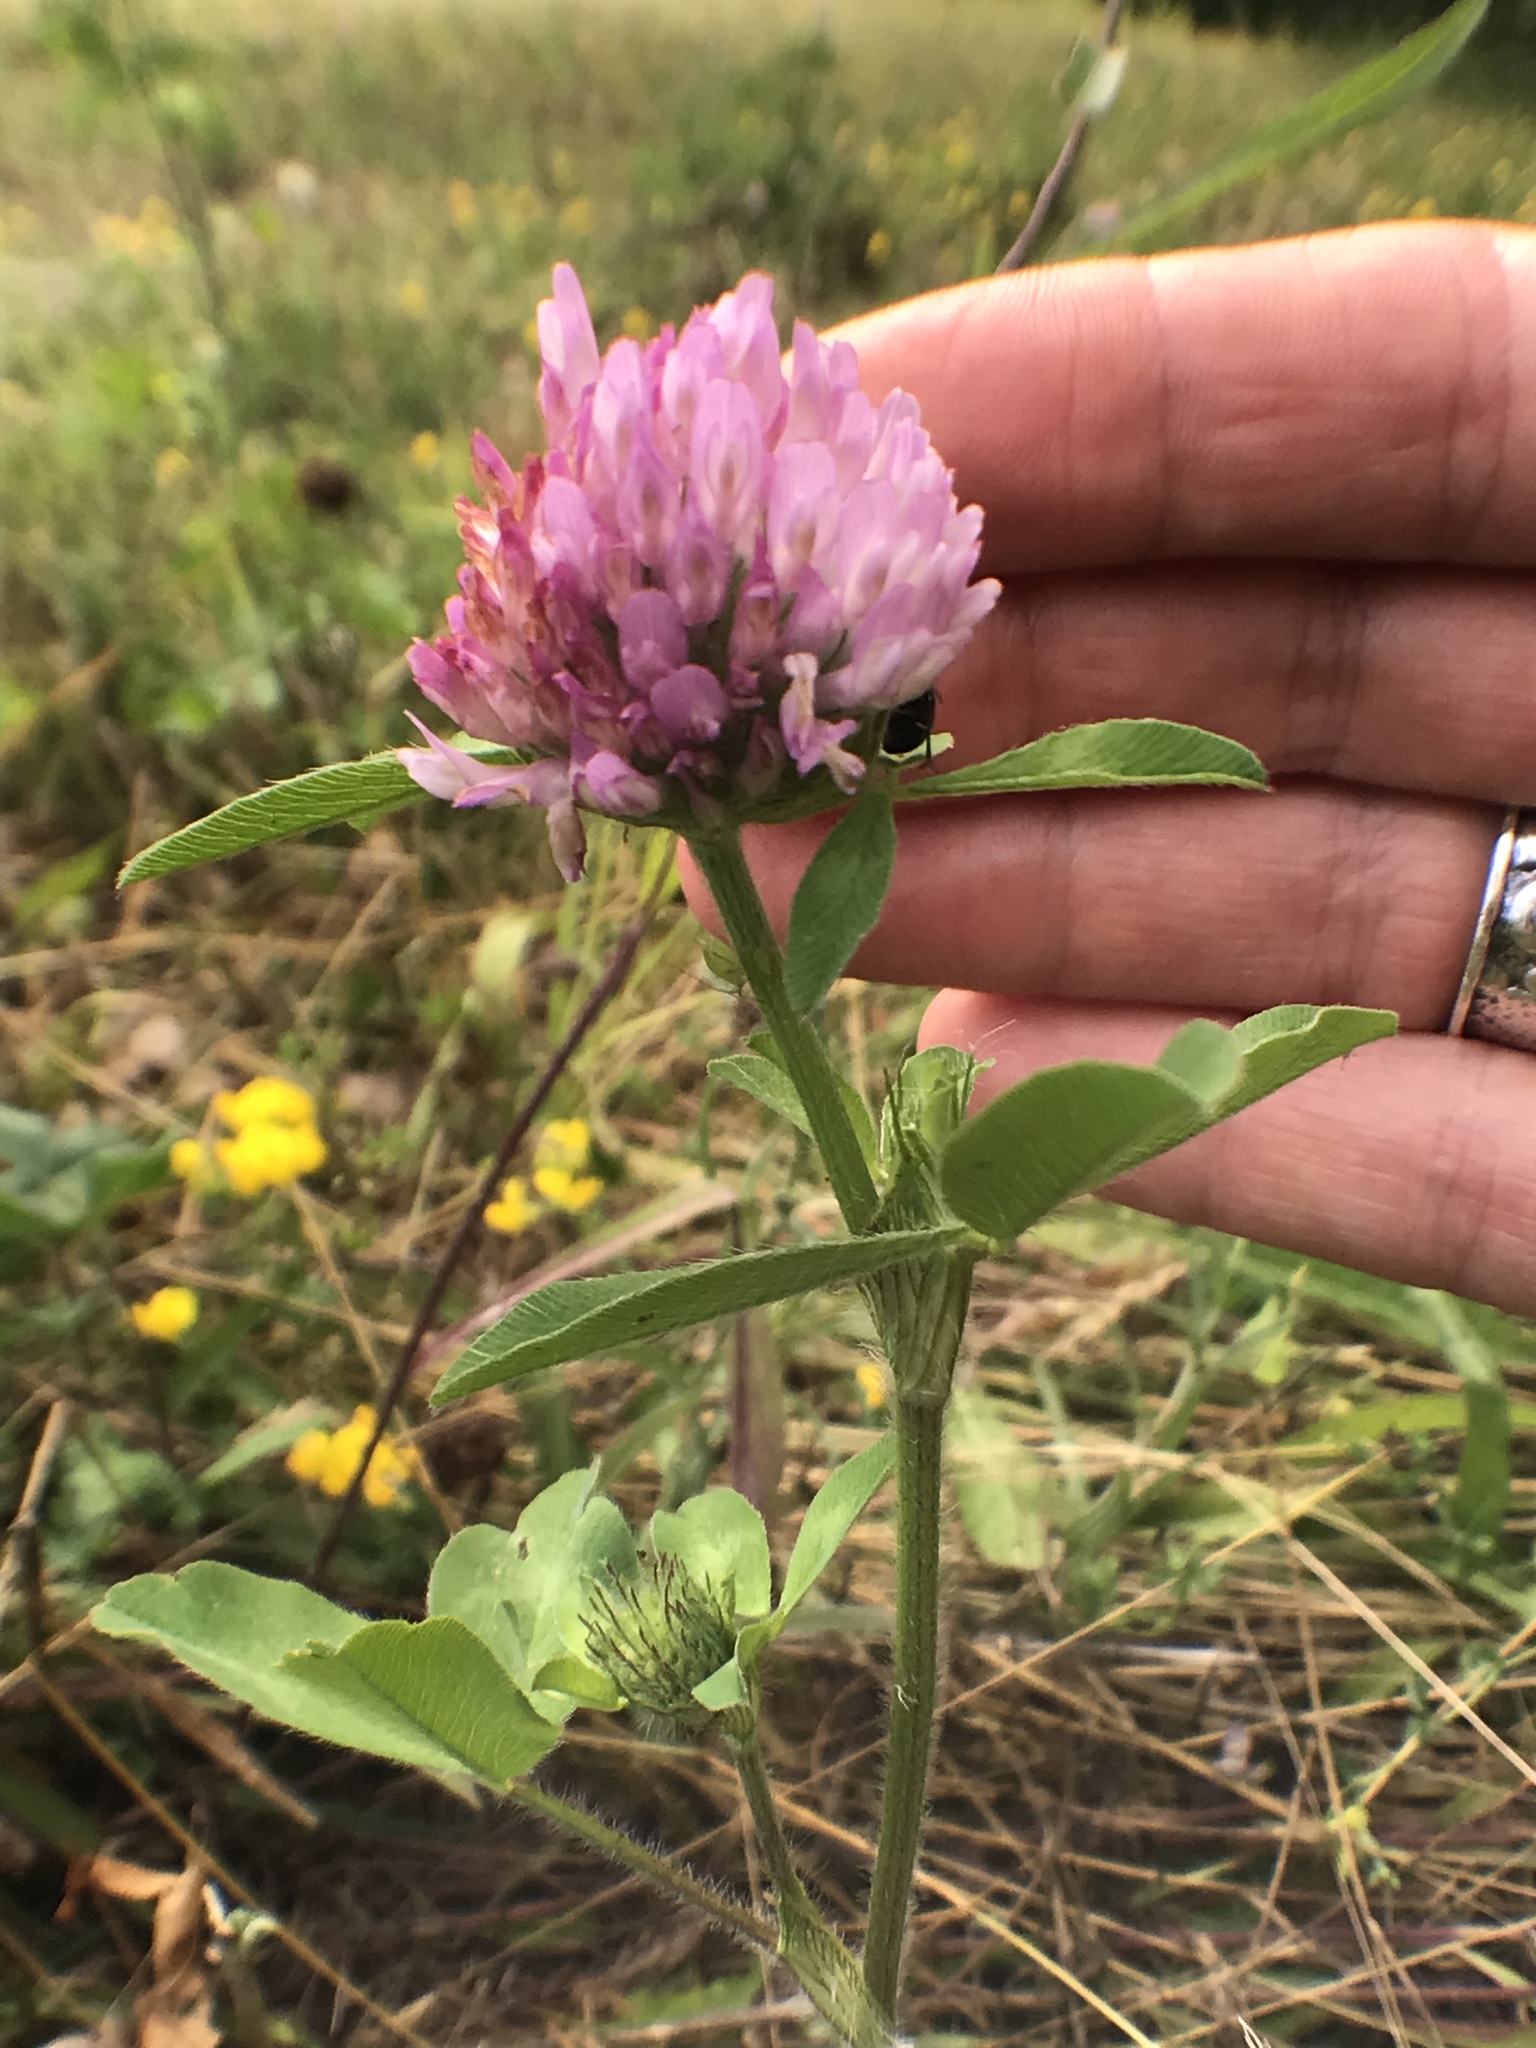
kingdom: Plantae
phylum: Tracheophyta
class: Magnoliopsida
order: Fabales
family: Fabaceae
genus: Trifolium
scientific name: Trifolium pratense
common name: Red clover
